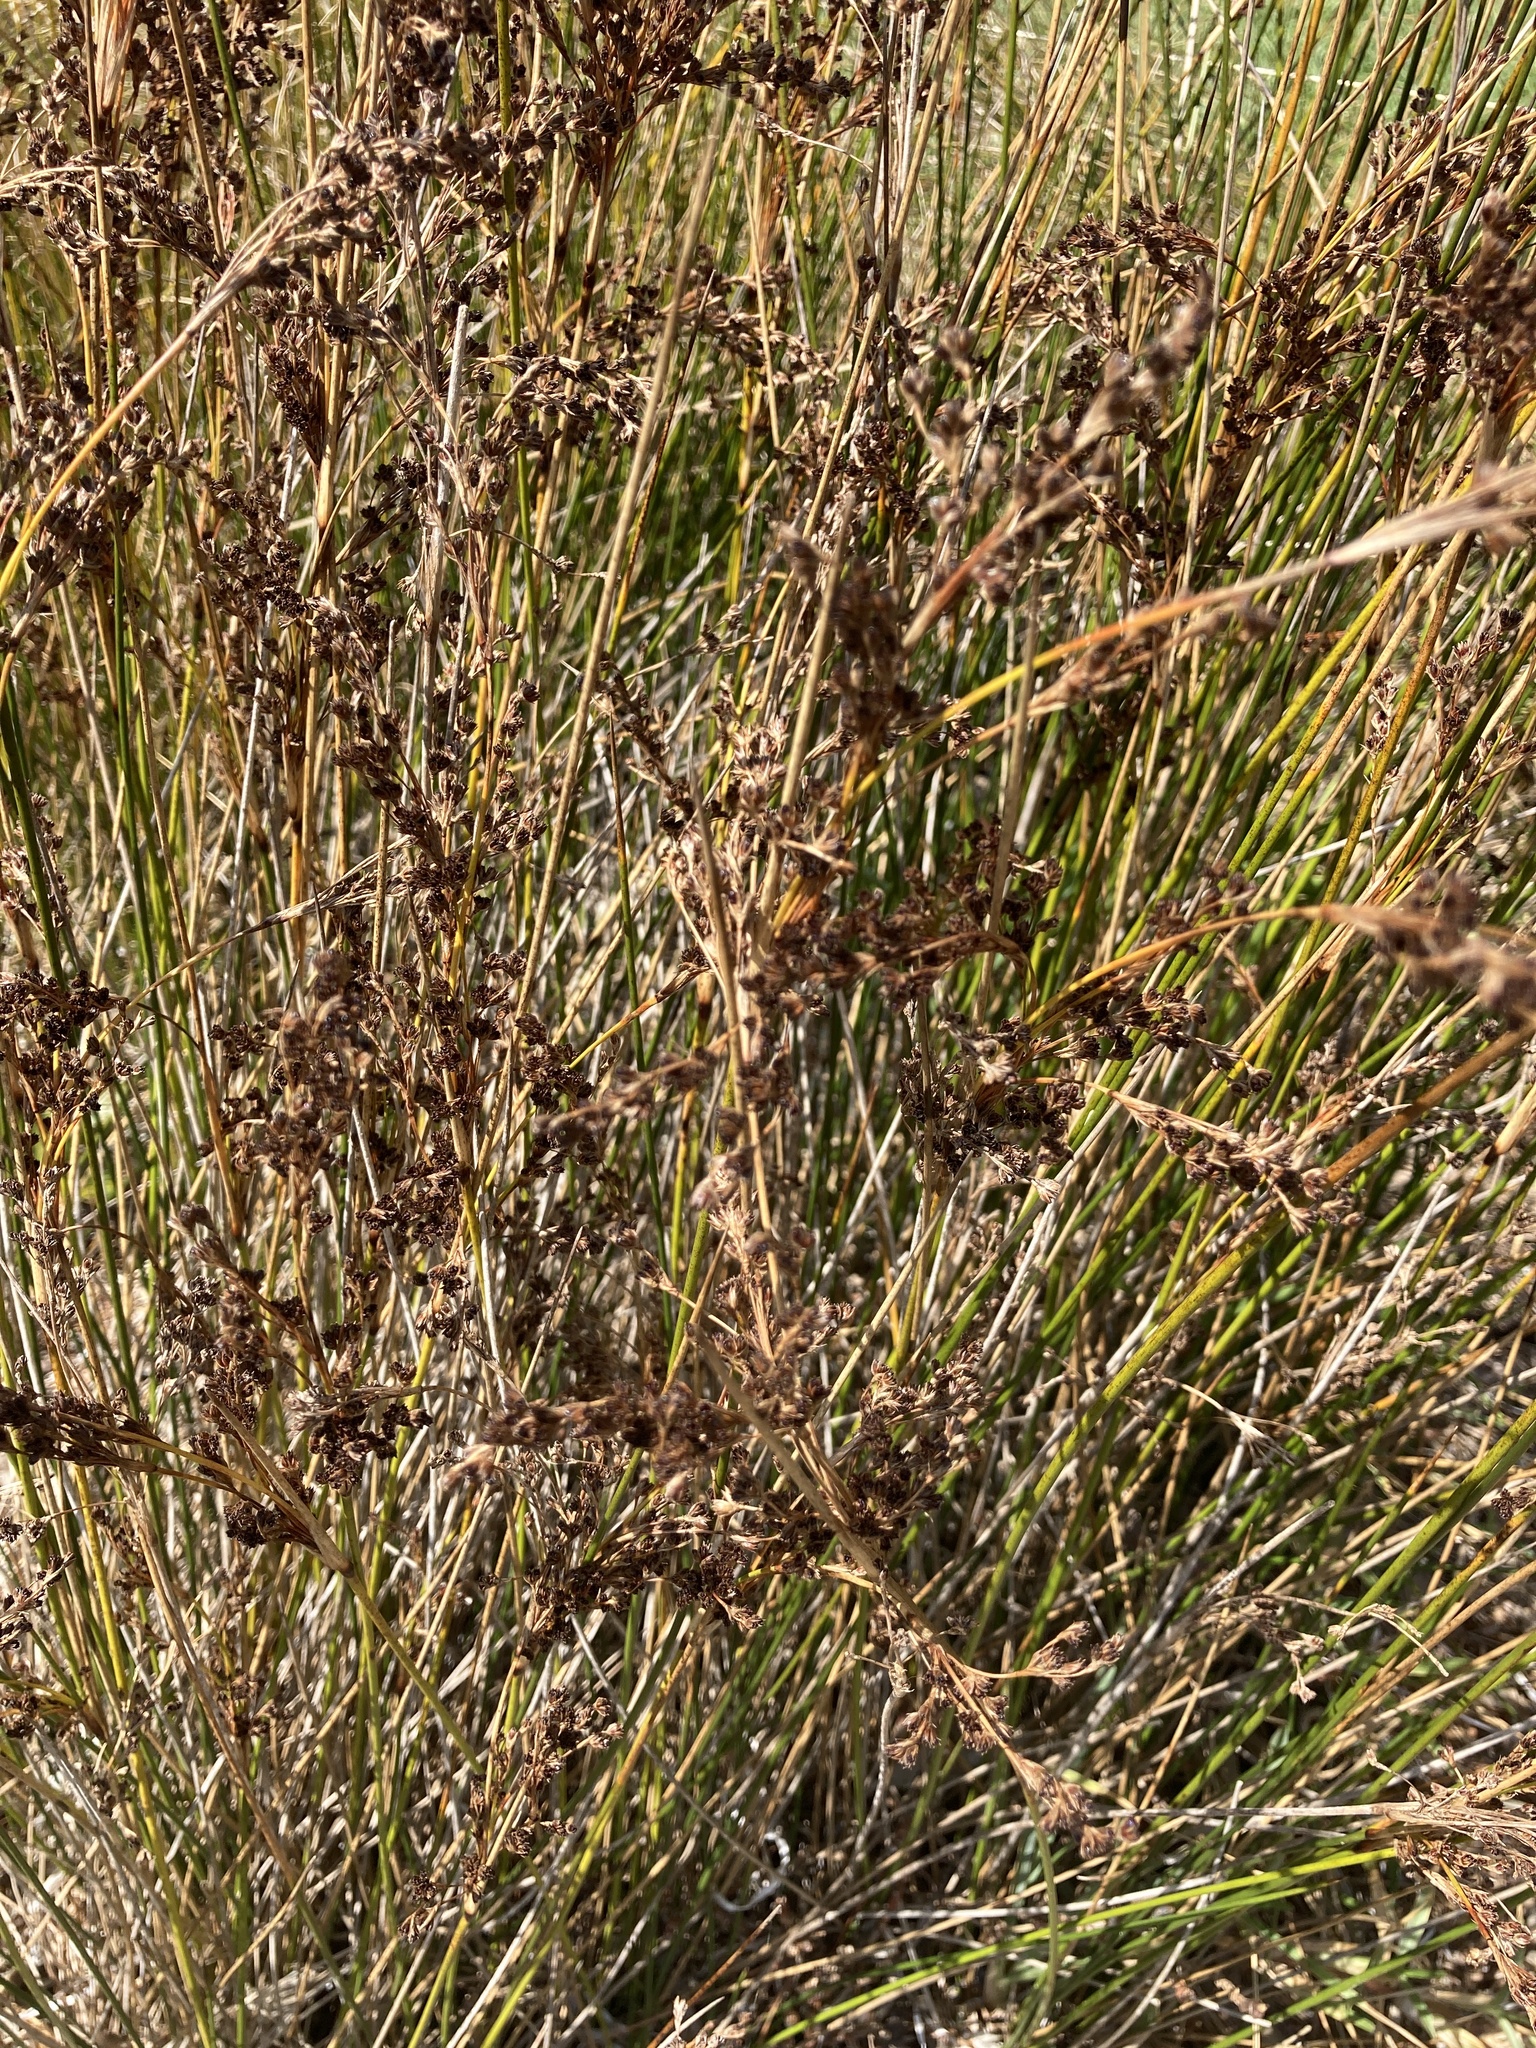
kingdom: Plantae
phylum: Tracheophyta
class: Liliopsida
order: Poales
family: Juncaceae
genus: Juncus
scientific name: Juncus kraussii
